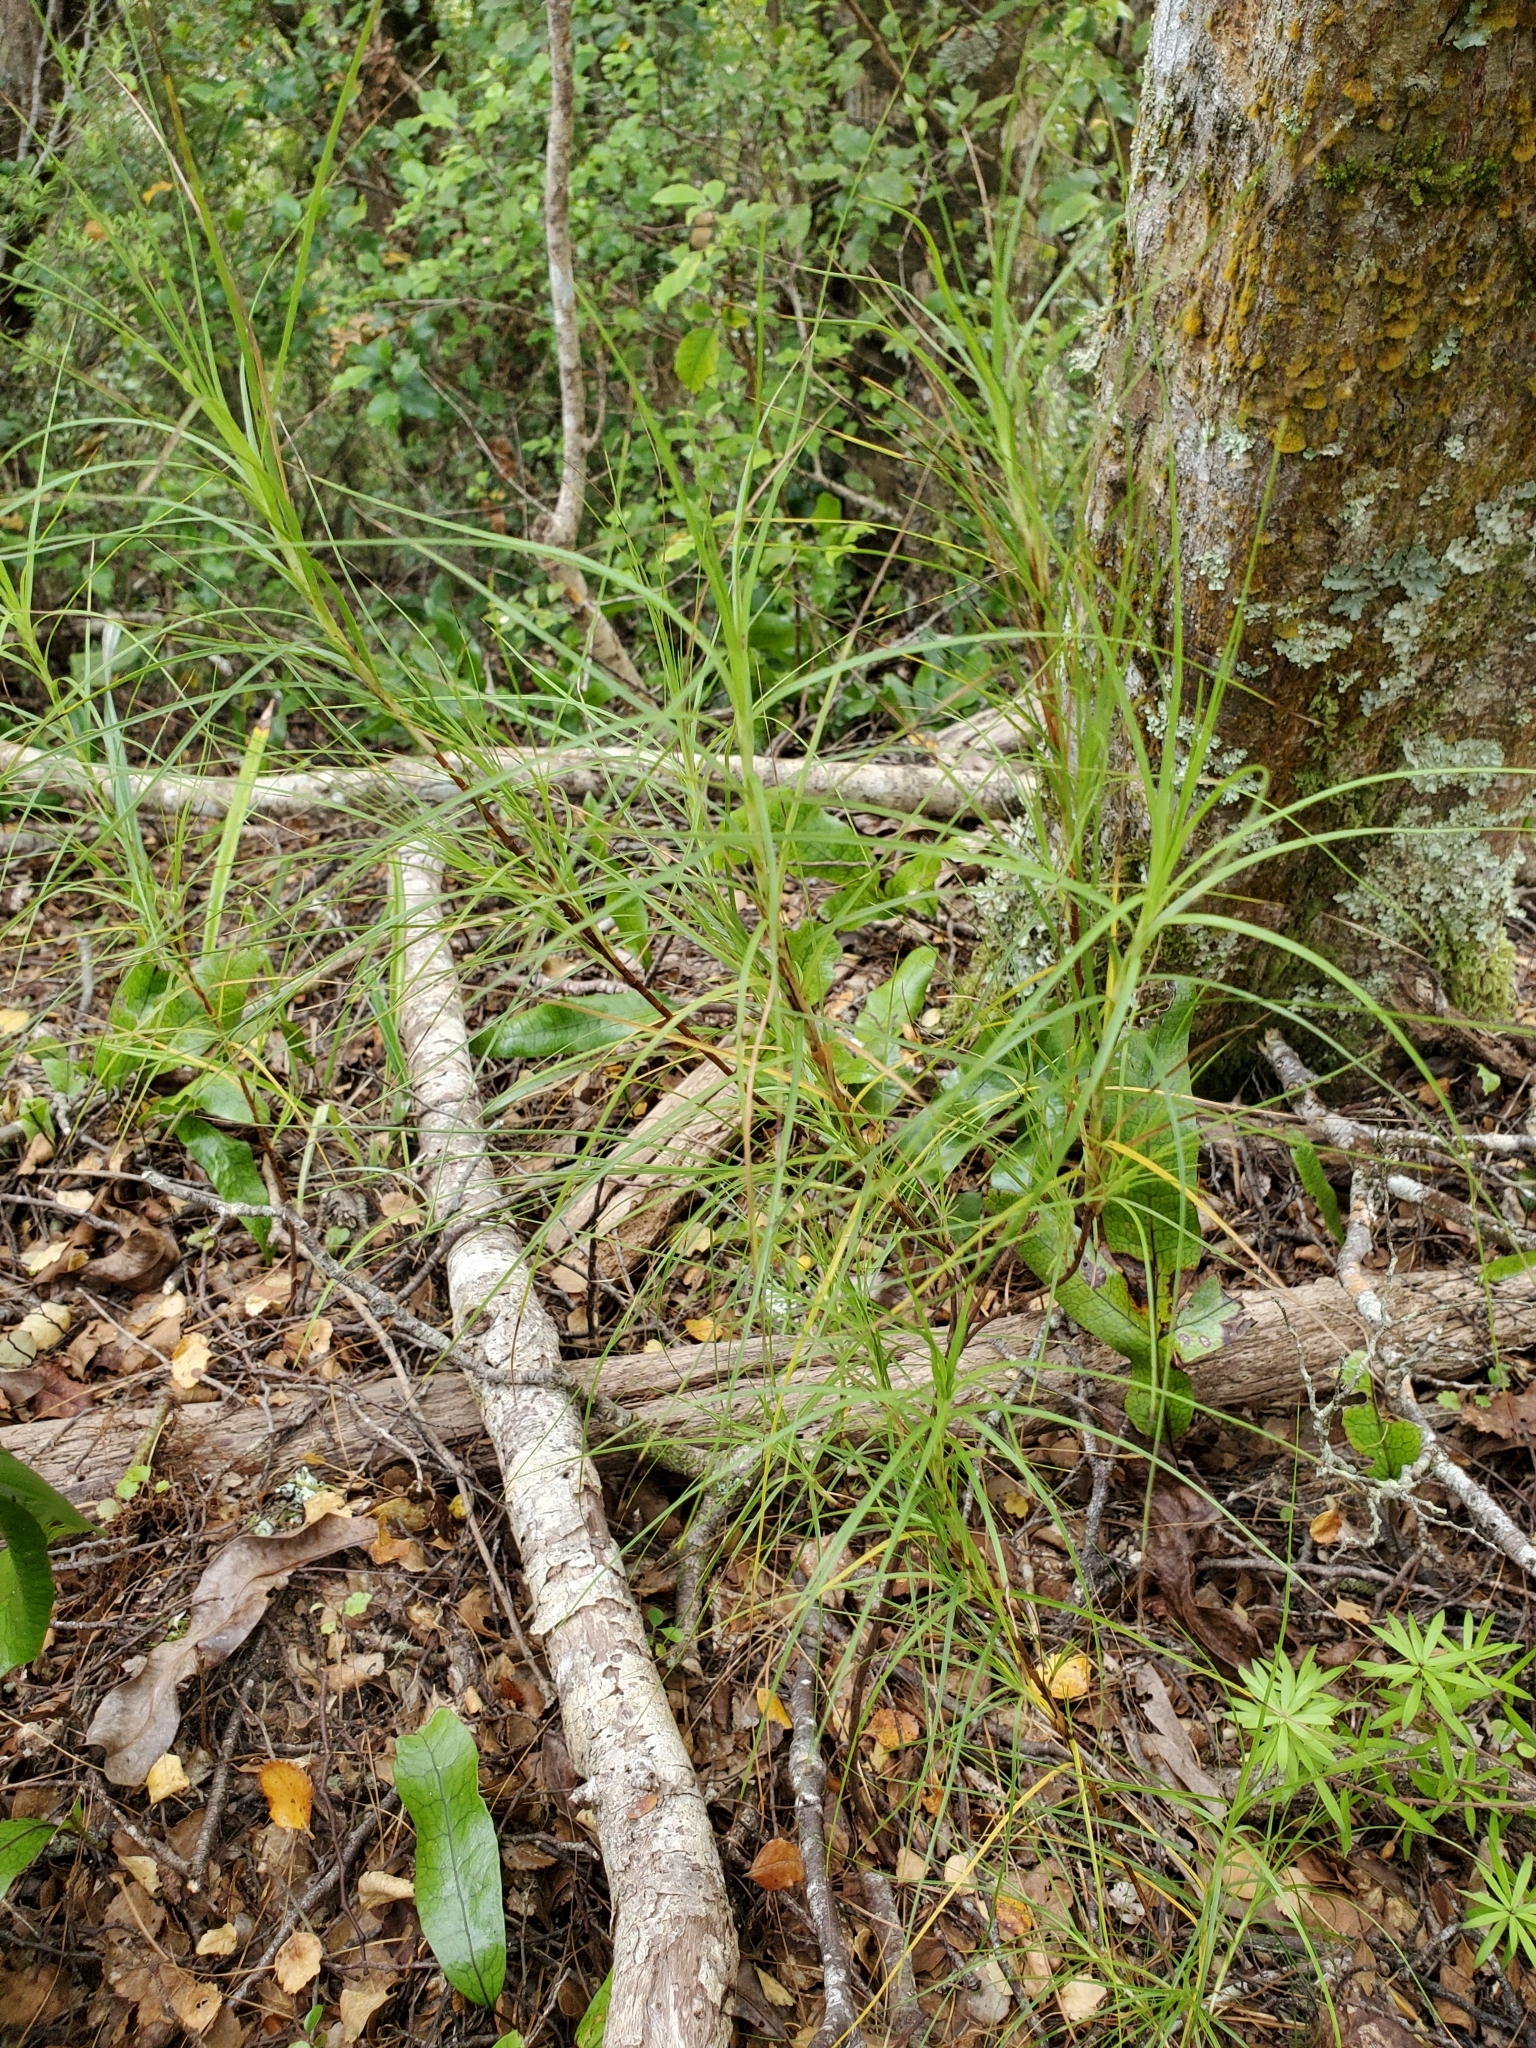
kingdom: Plantae
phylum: Tracheophyta
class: Magnoliopsida
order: Ericales
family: Ericaceae
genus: Dracophyllum
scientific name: Dracophyllum filifolium
